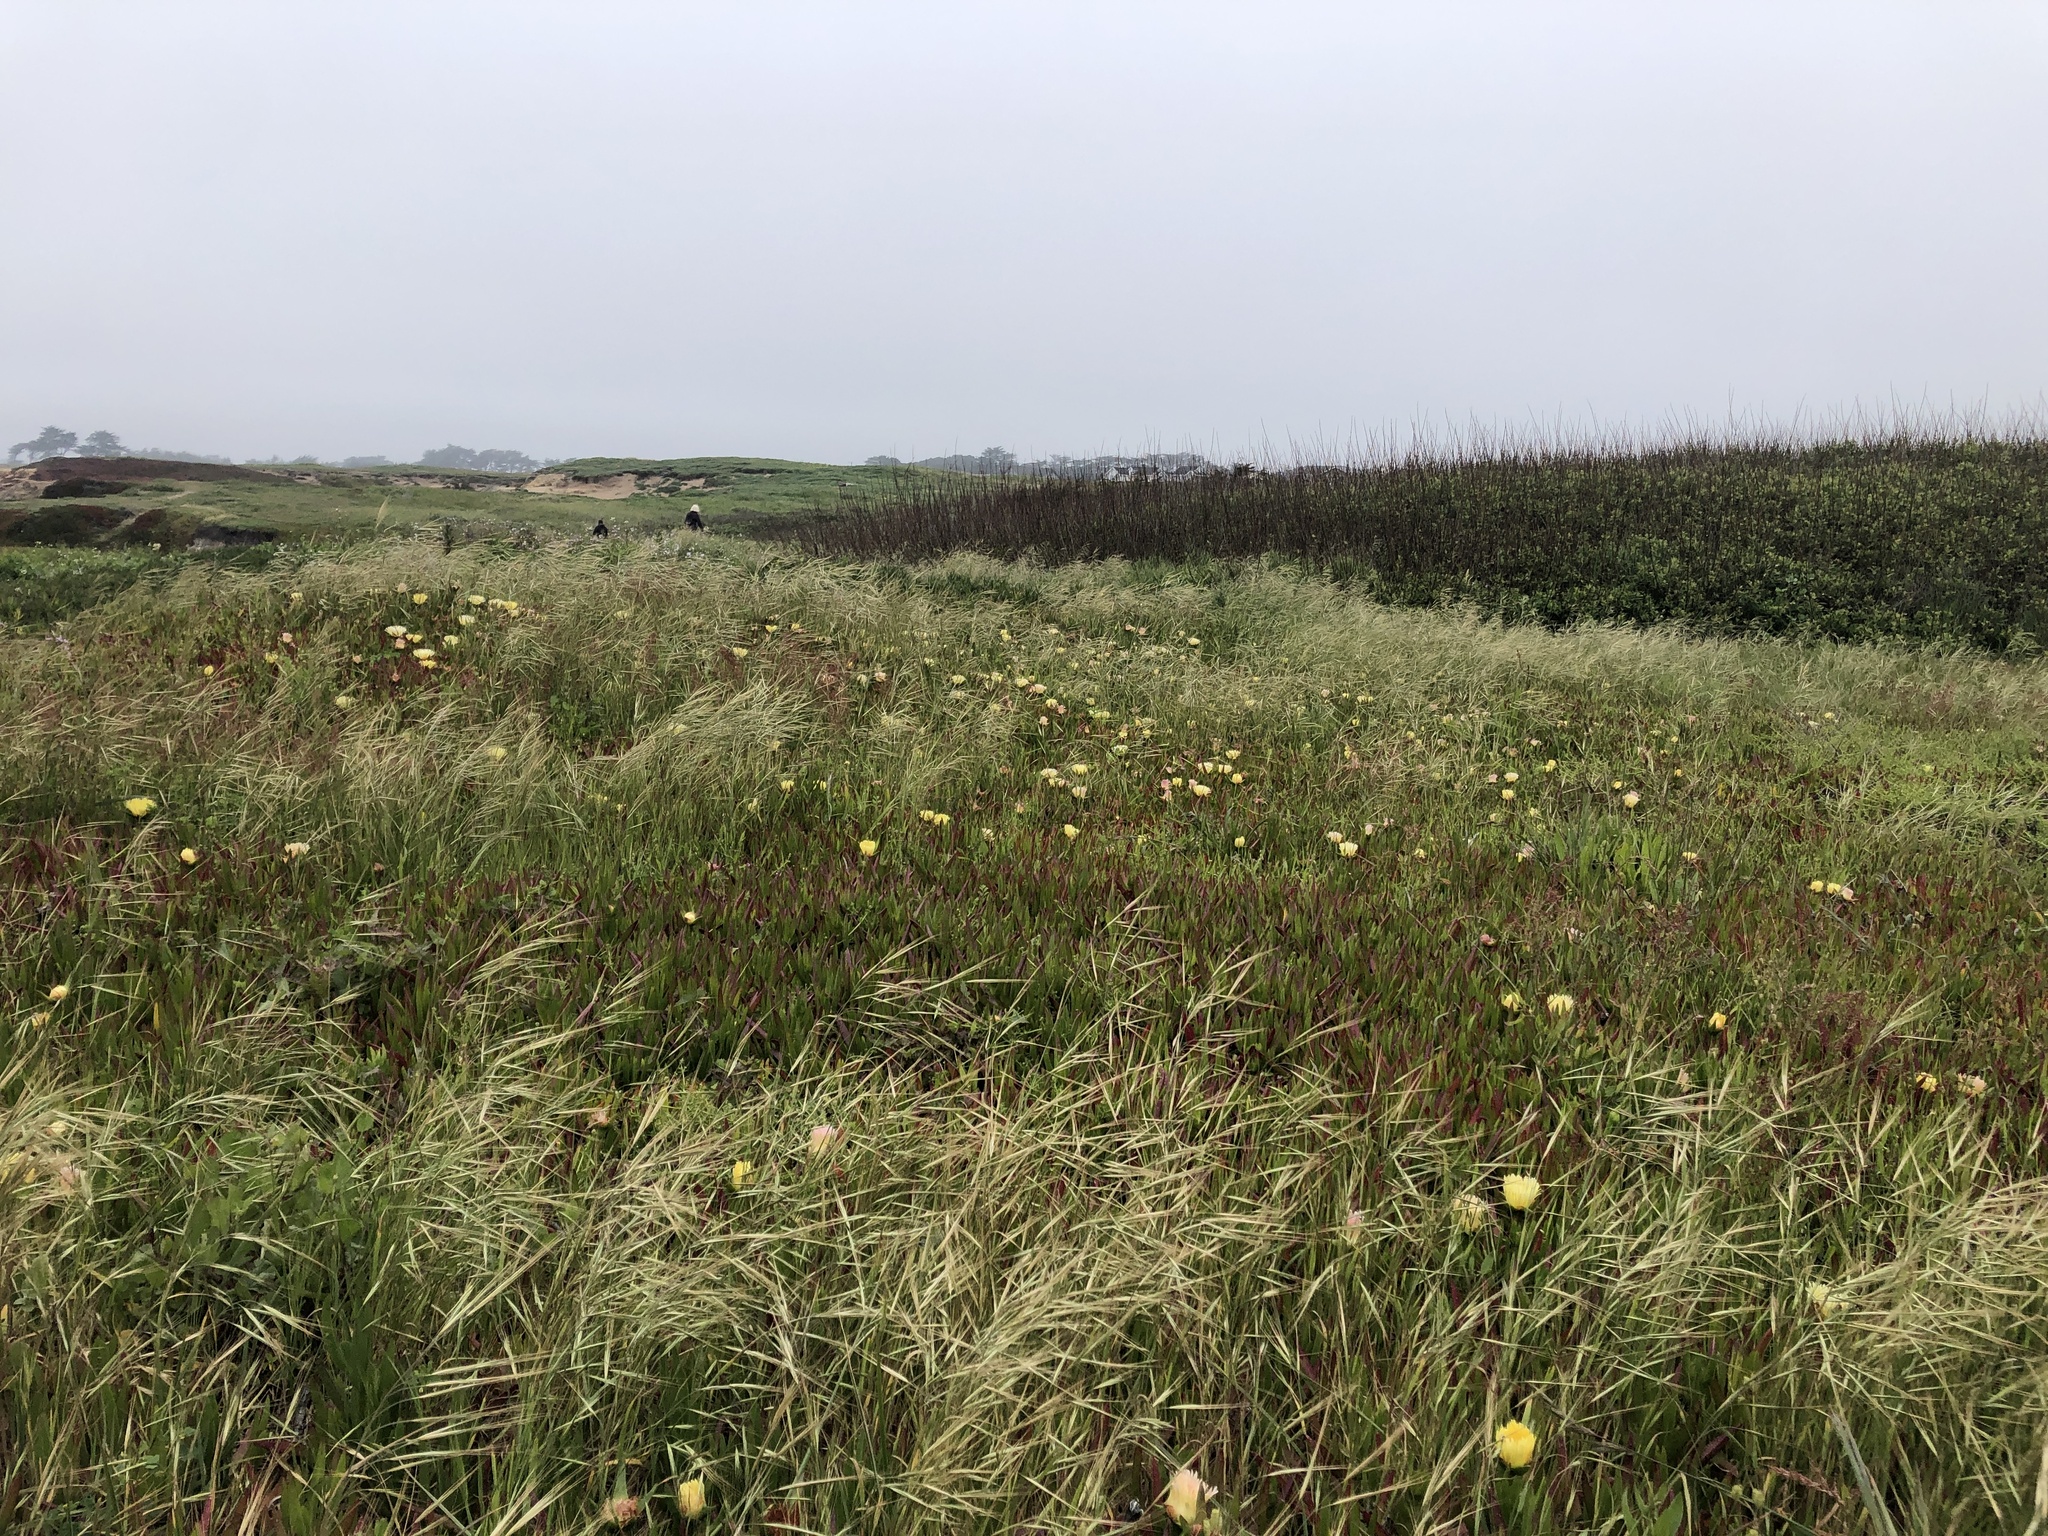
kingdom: Plantae
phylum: Tracheophyta
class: Magnoliopsida
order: Caryophyllales
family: Aizoaceae
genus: Carpobrotus
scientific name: Carpobrotus edulis
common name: Hottentot-fig
